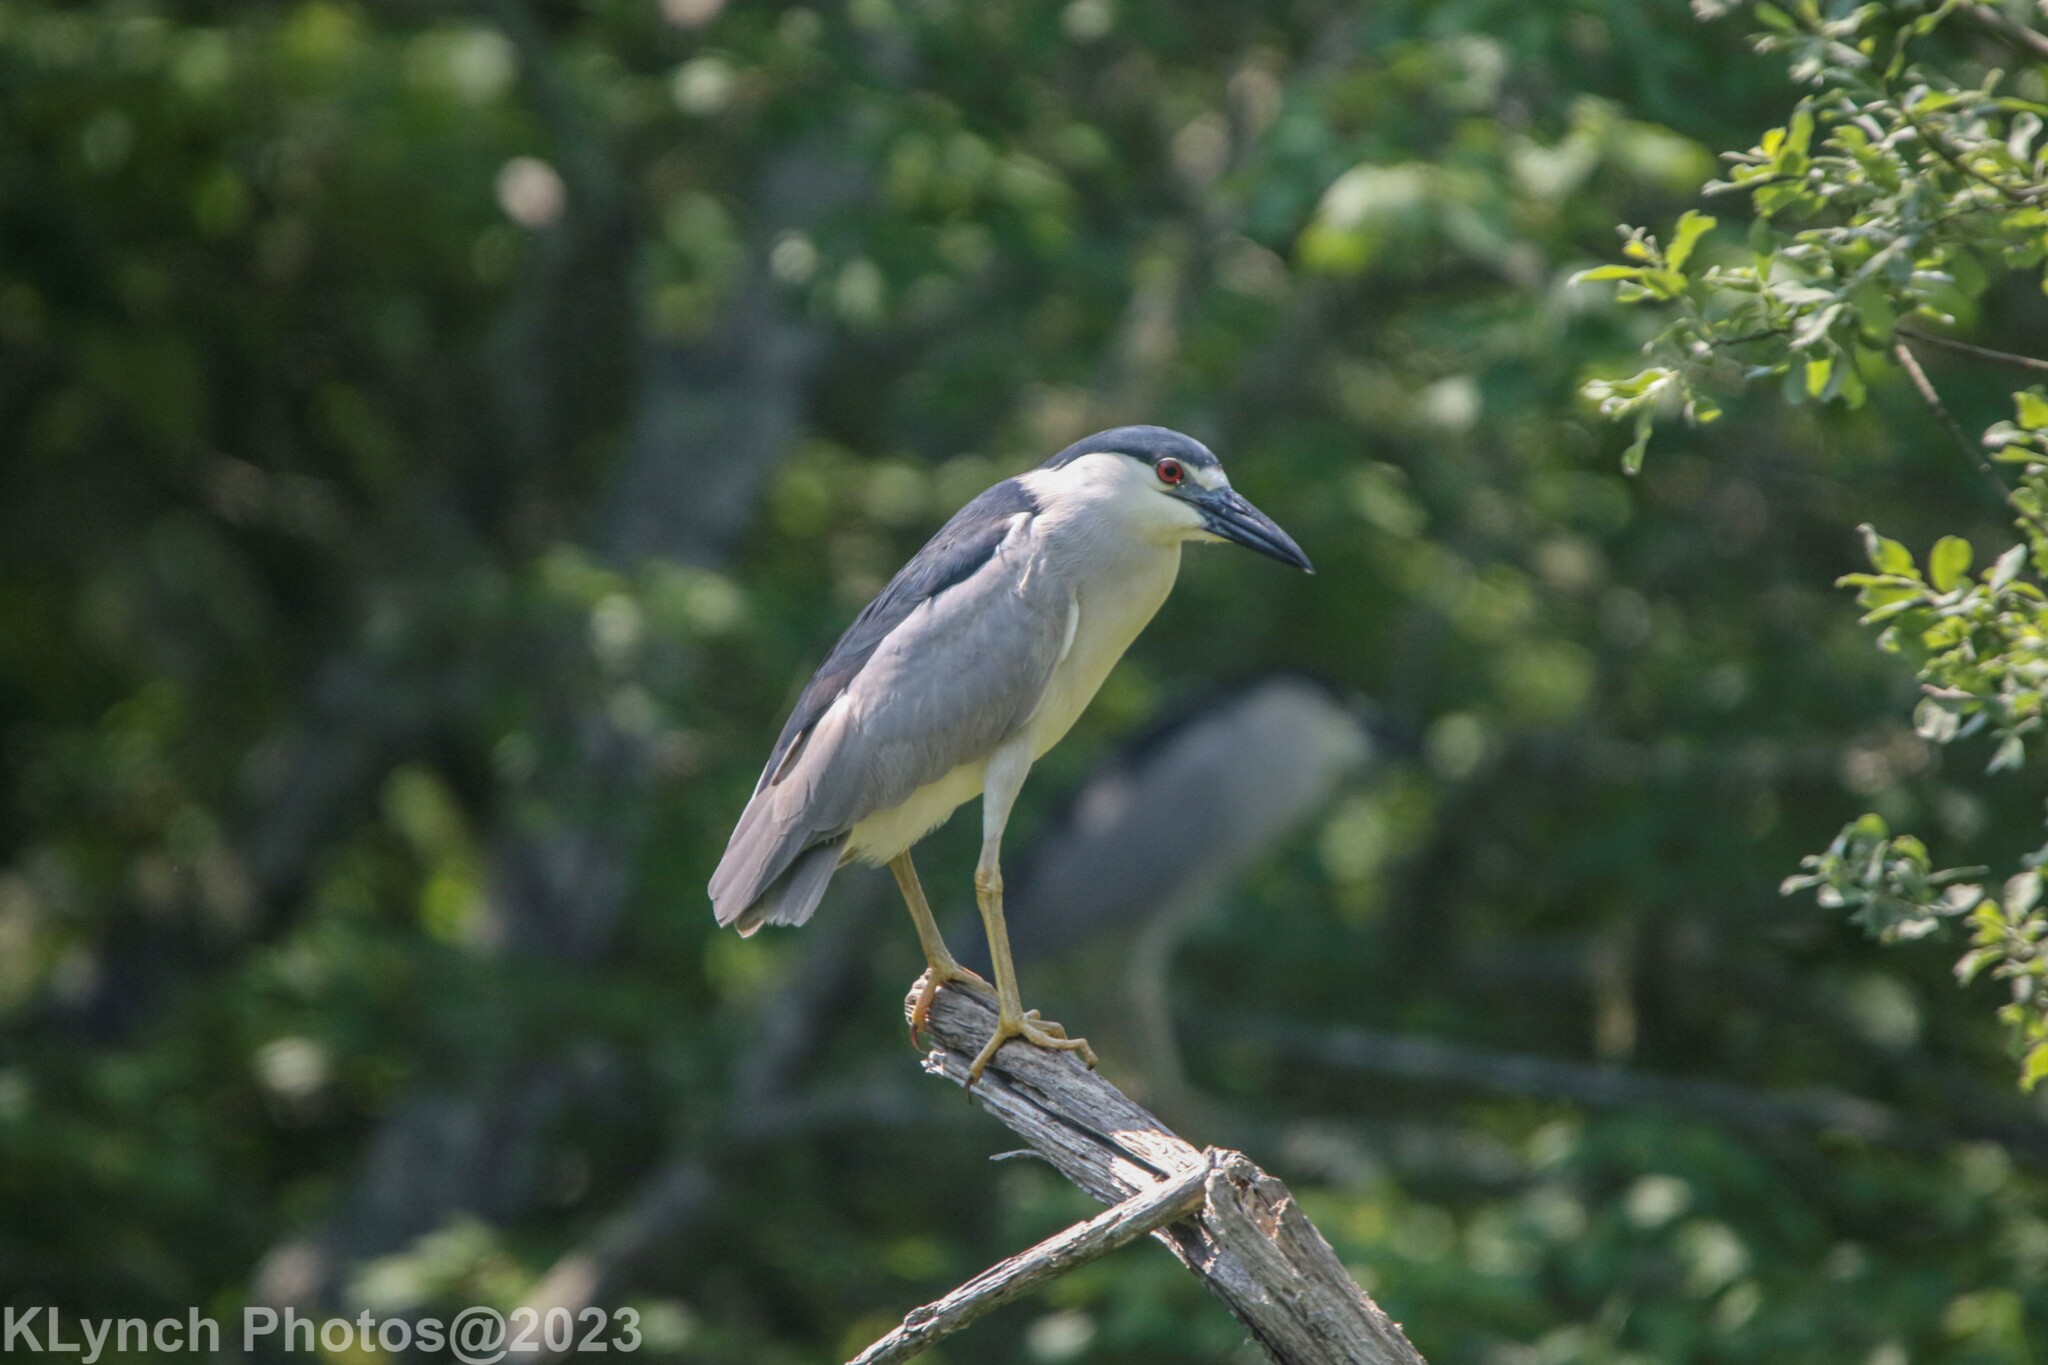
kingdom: Animalia
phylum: Chordata
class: Aves
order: Pelecaniformes
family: Ardeidae
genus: Nycticorax
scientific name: Nycticorax nycticorax
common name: Black-crowned night heron
